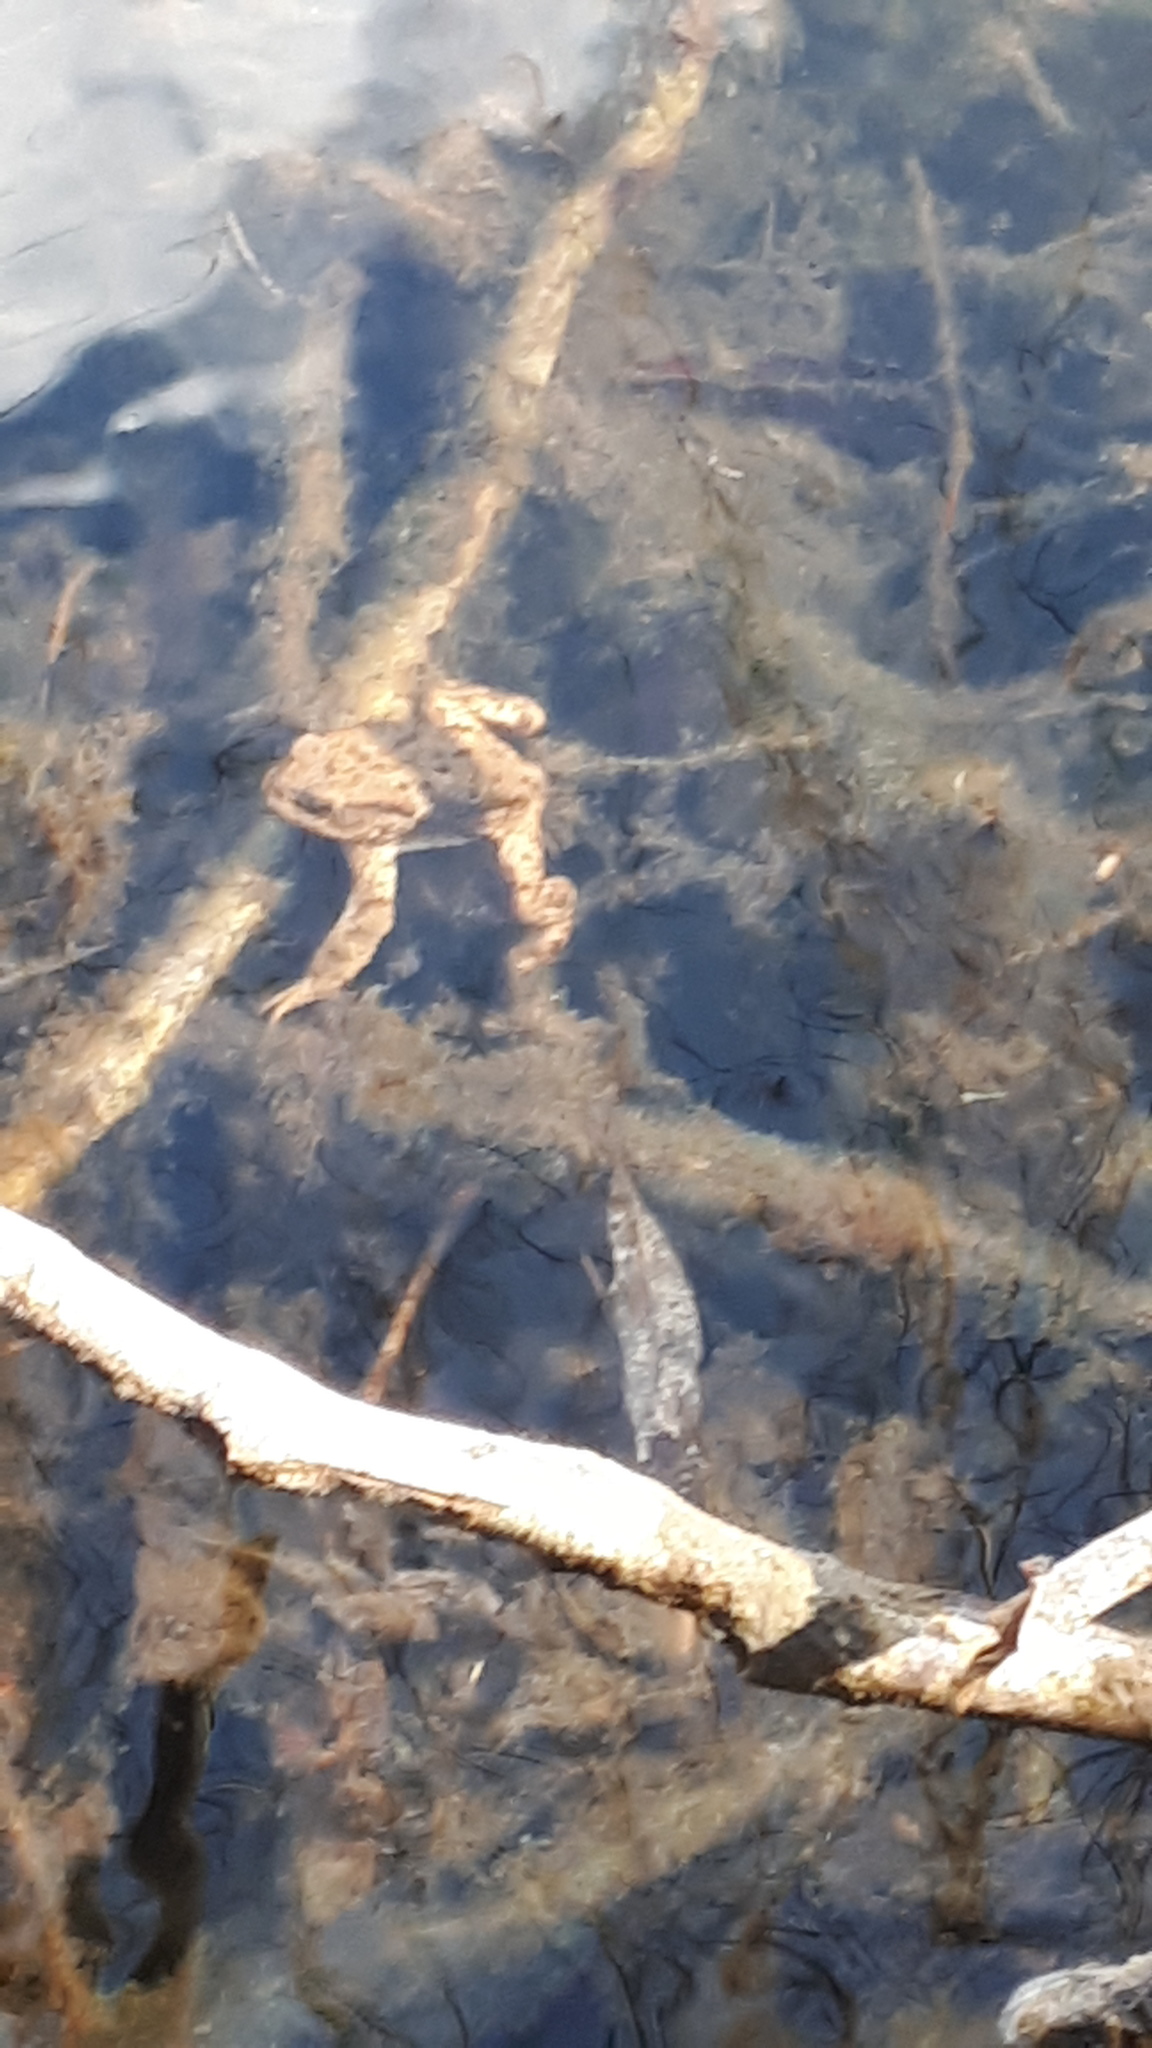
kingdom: Animalia
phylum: Chordata
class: Amphibia
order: Anura
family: Bufonidae
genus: Bufo
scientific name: Bufo bufo
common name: Common toad
